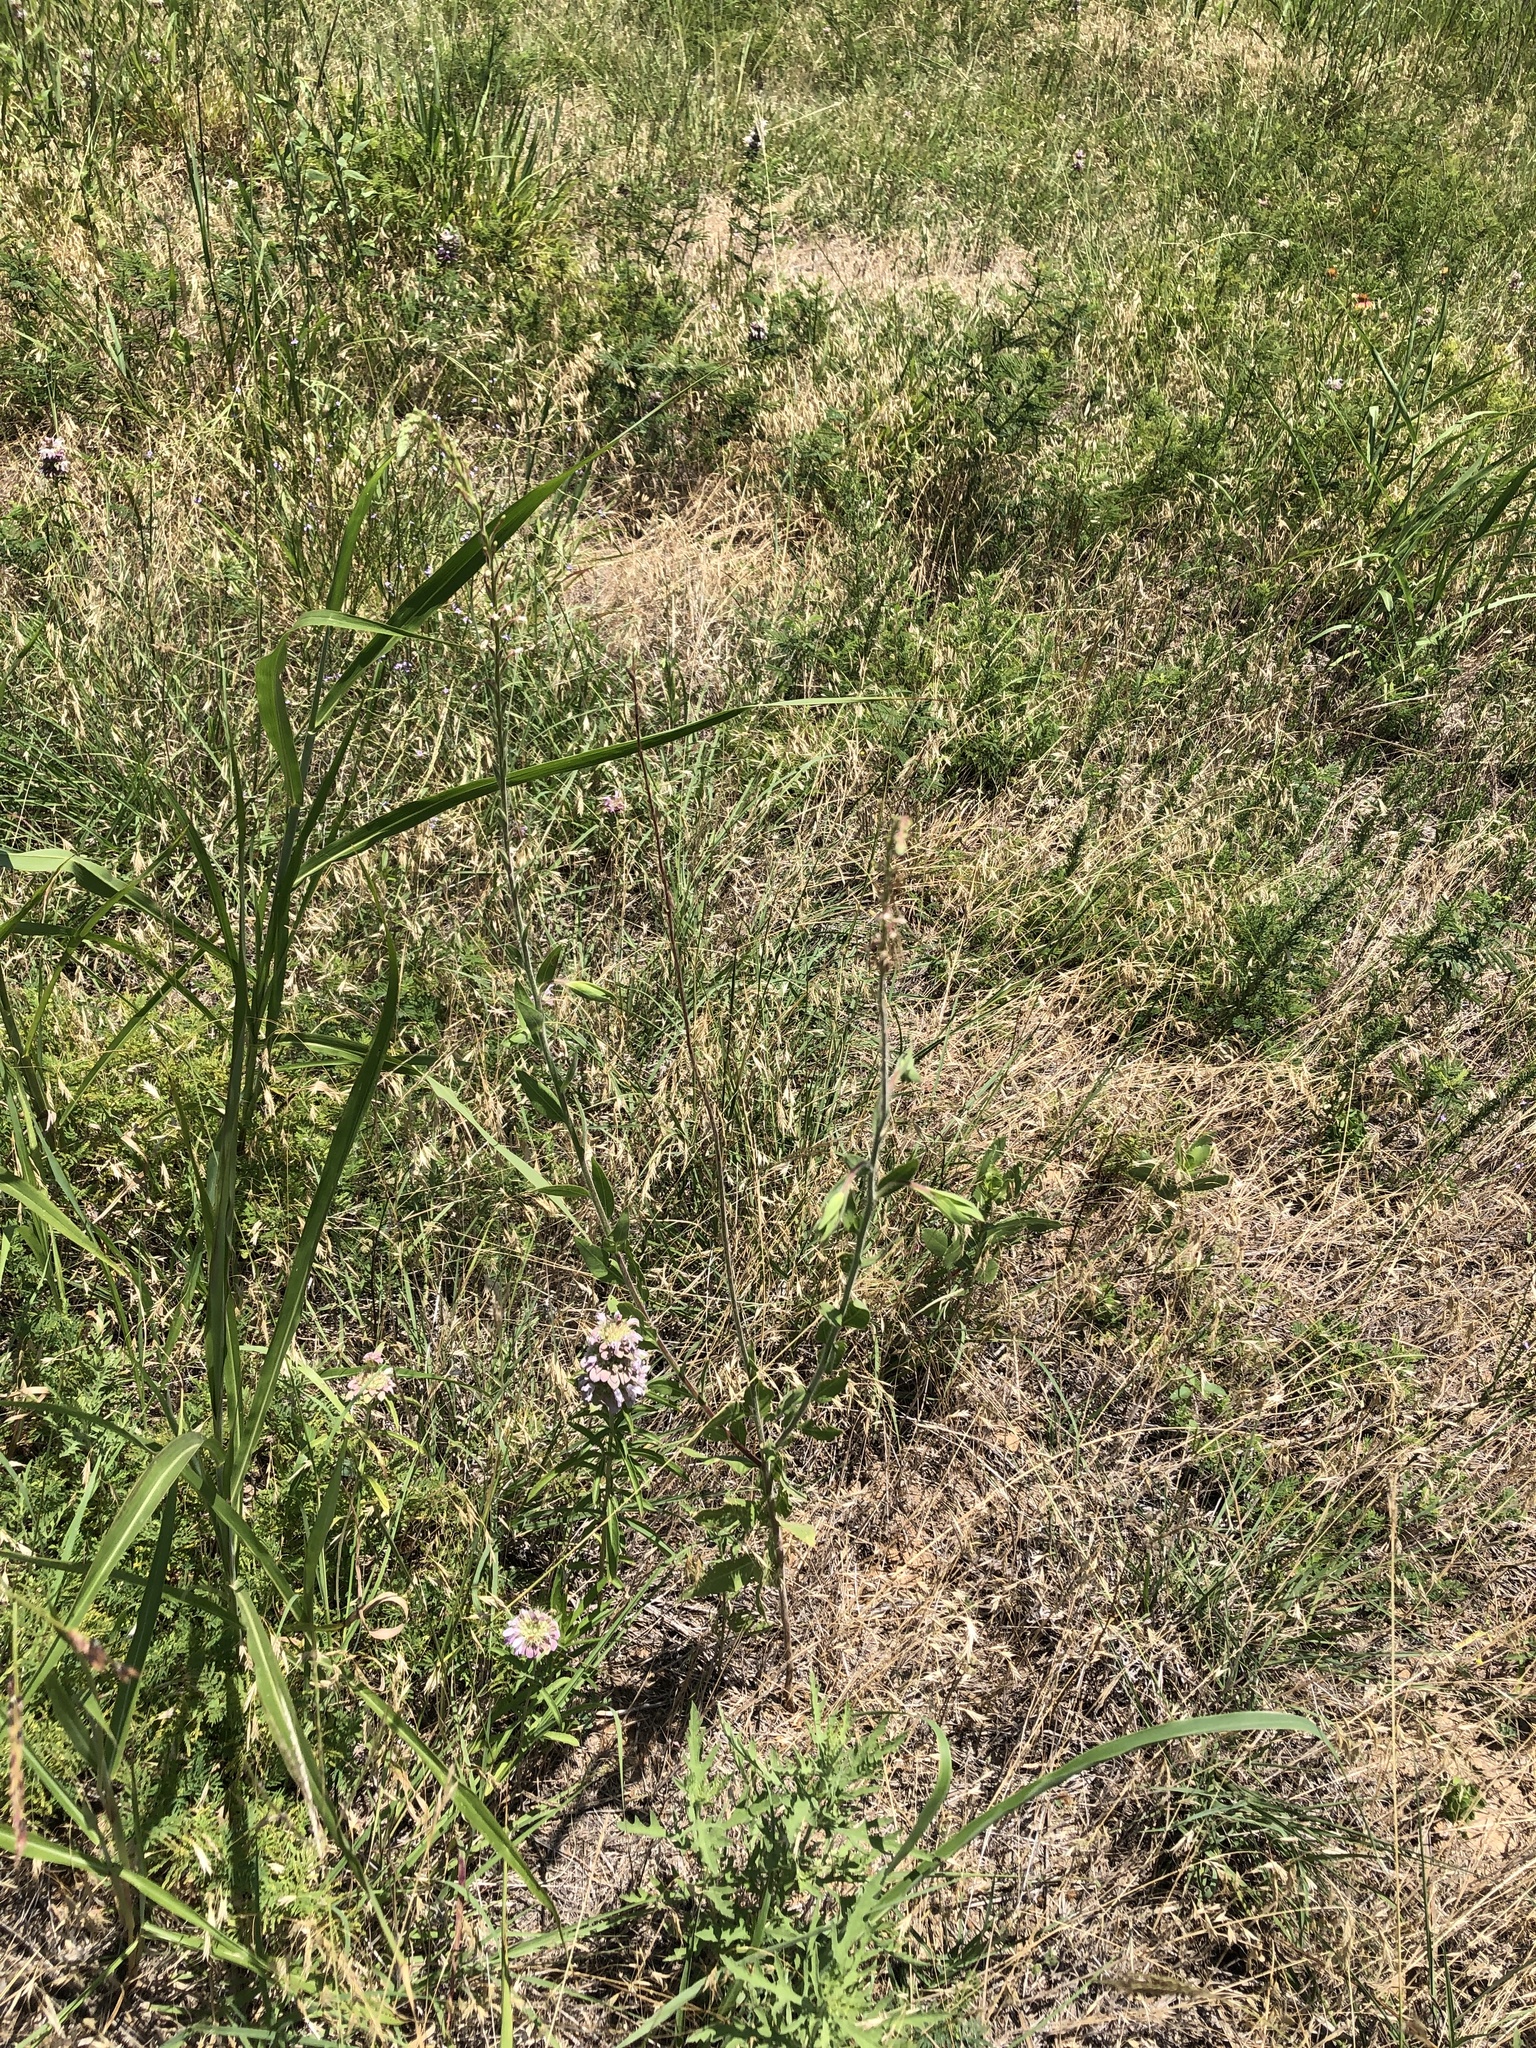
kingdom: Plantae
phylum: Tracheophyta
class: Magnoliopsida
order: Myrtales
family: Onagraceae
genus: Oenothera
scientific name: Oenothera curtiflora
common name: Velvetweed
